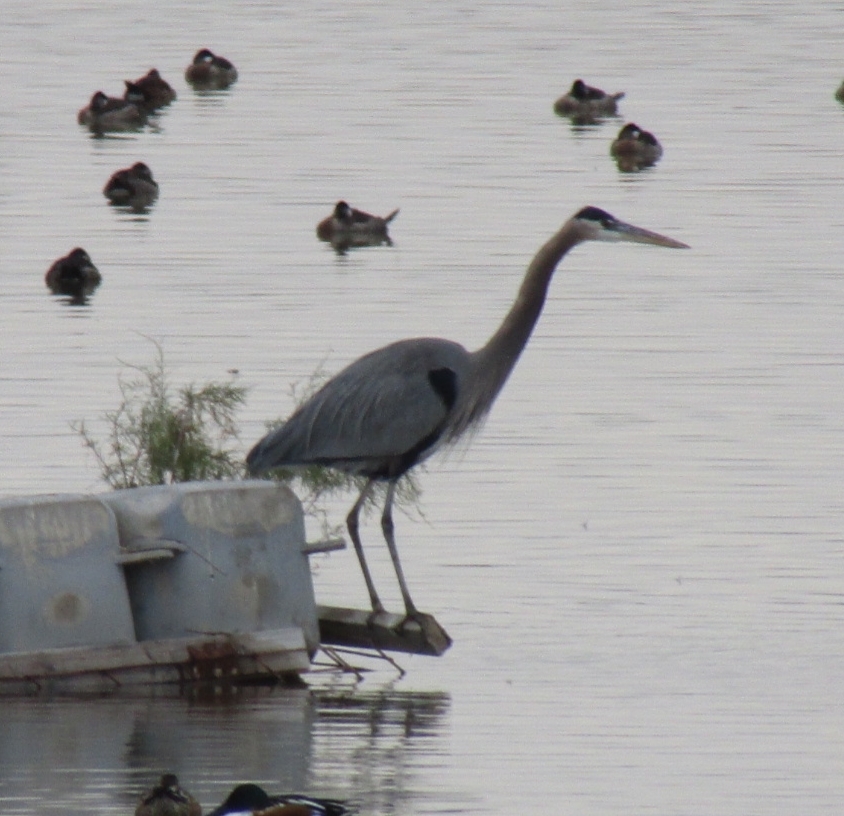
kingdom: Animalia
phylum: Chordata
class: Aves
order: Pelecaniformes
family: Ardeidae
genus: Ardea
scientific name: Ardea herodias
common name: Great blue heron
